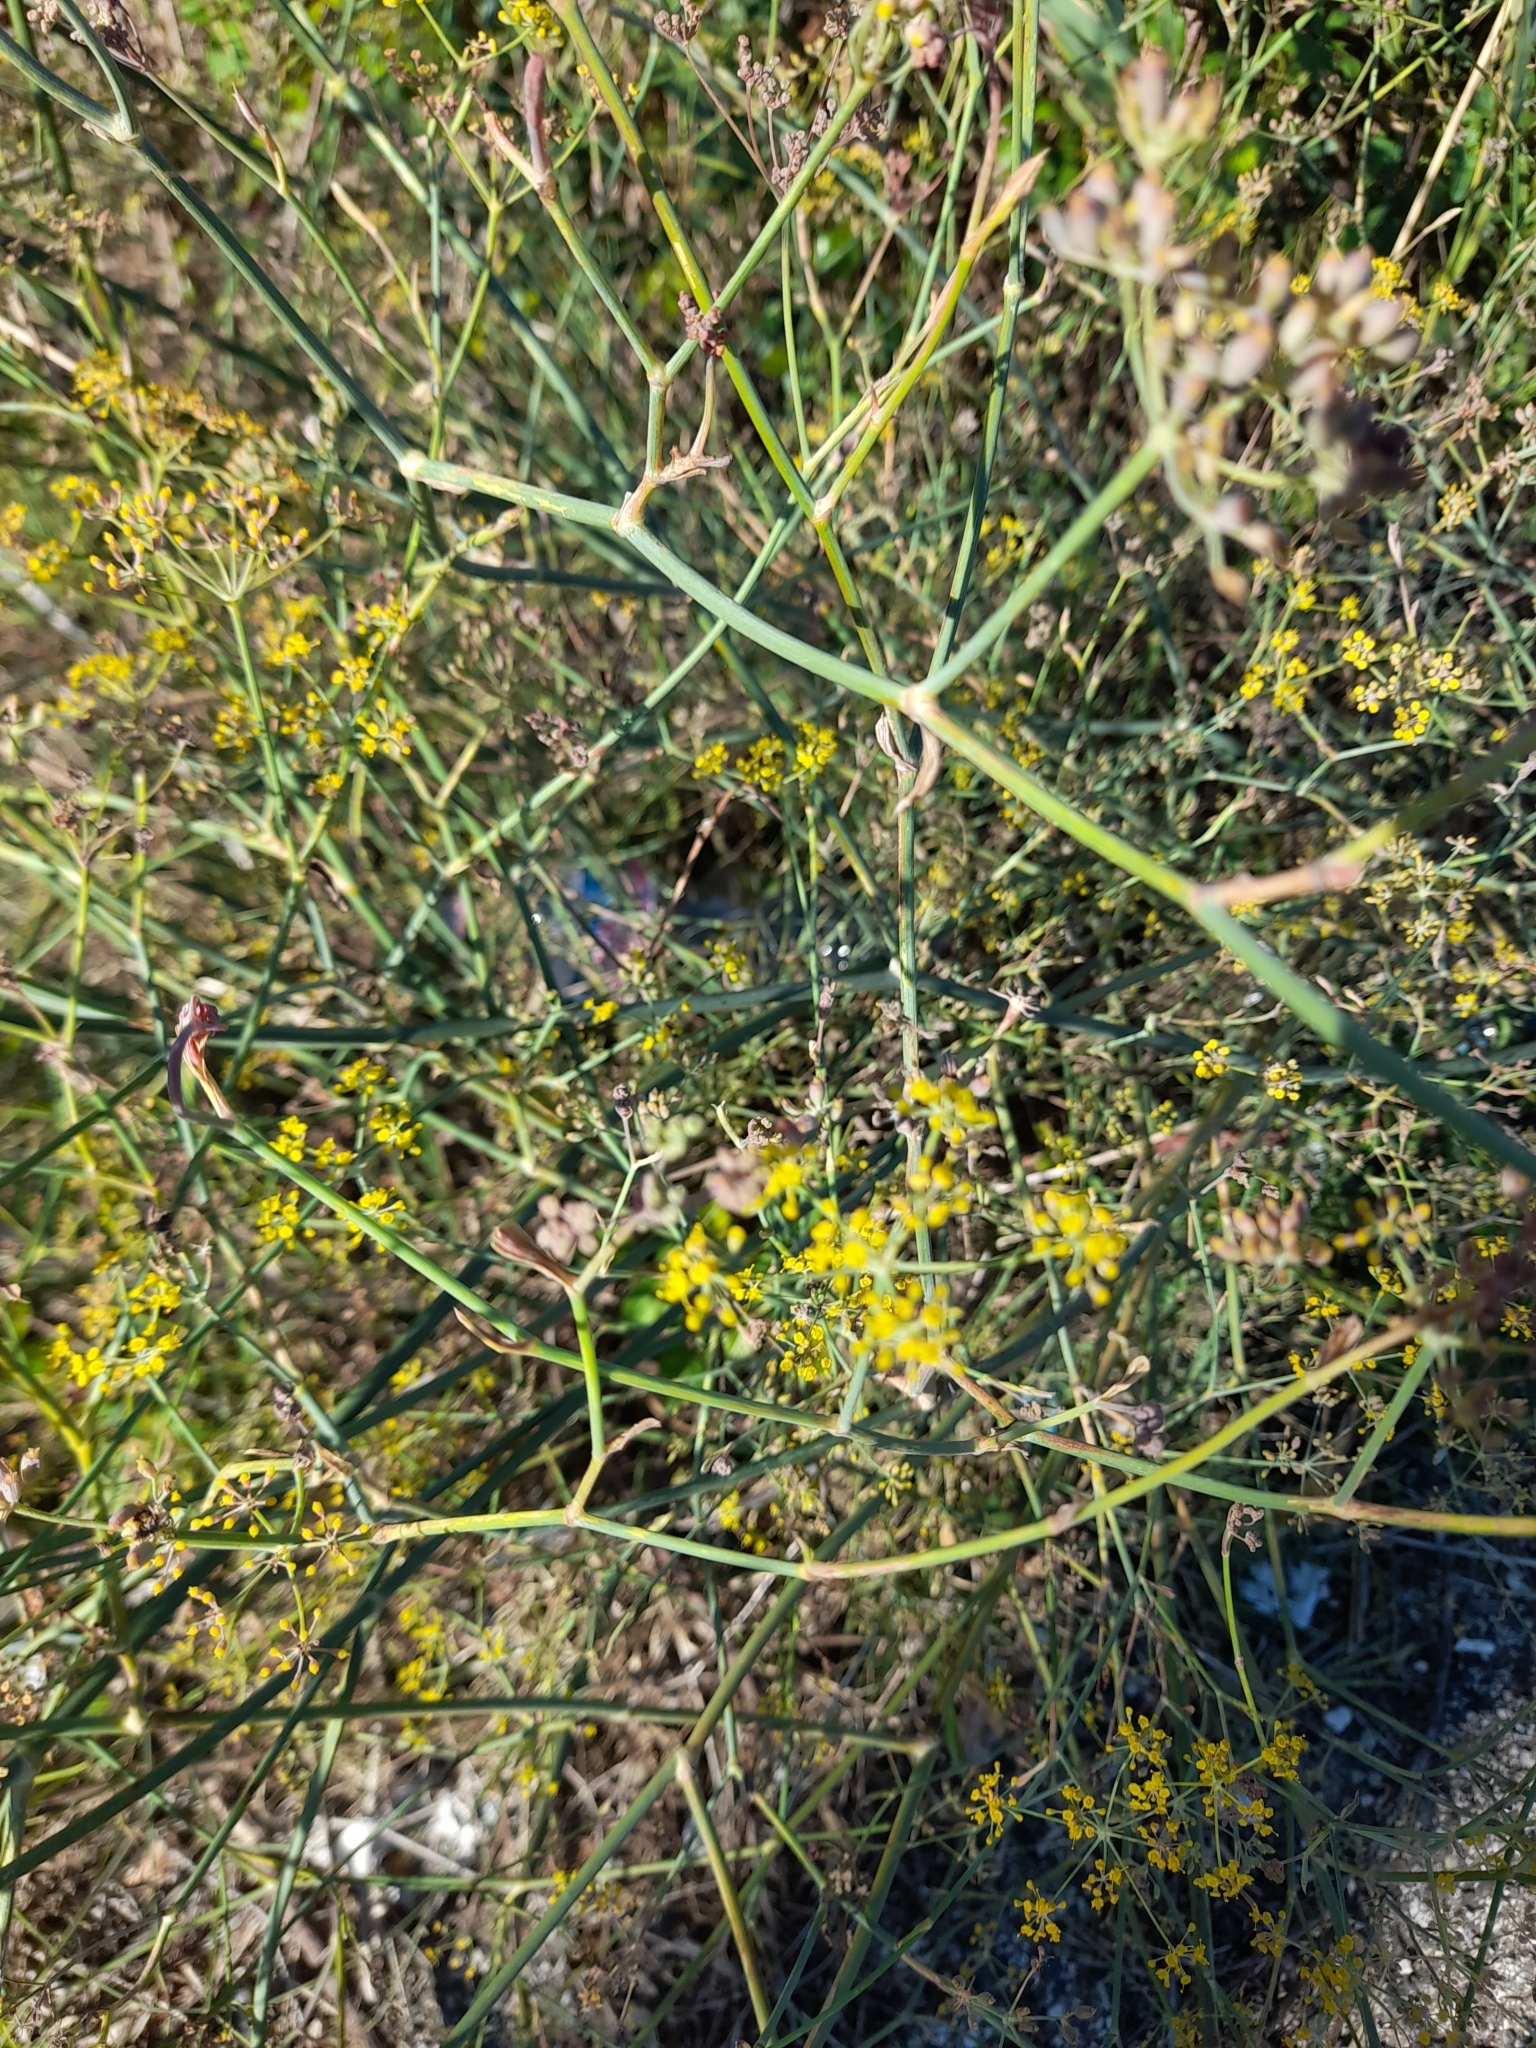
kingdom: Plantae
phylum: Tracheophyta
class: Magnoliopsida
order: Apiales
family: Apiaceae
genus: Foeniculum
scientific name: Foeniculum vulgare
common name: Fennel
